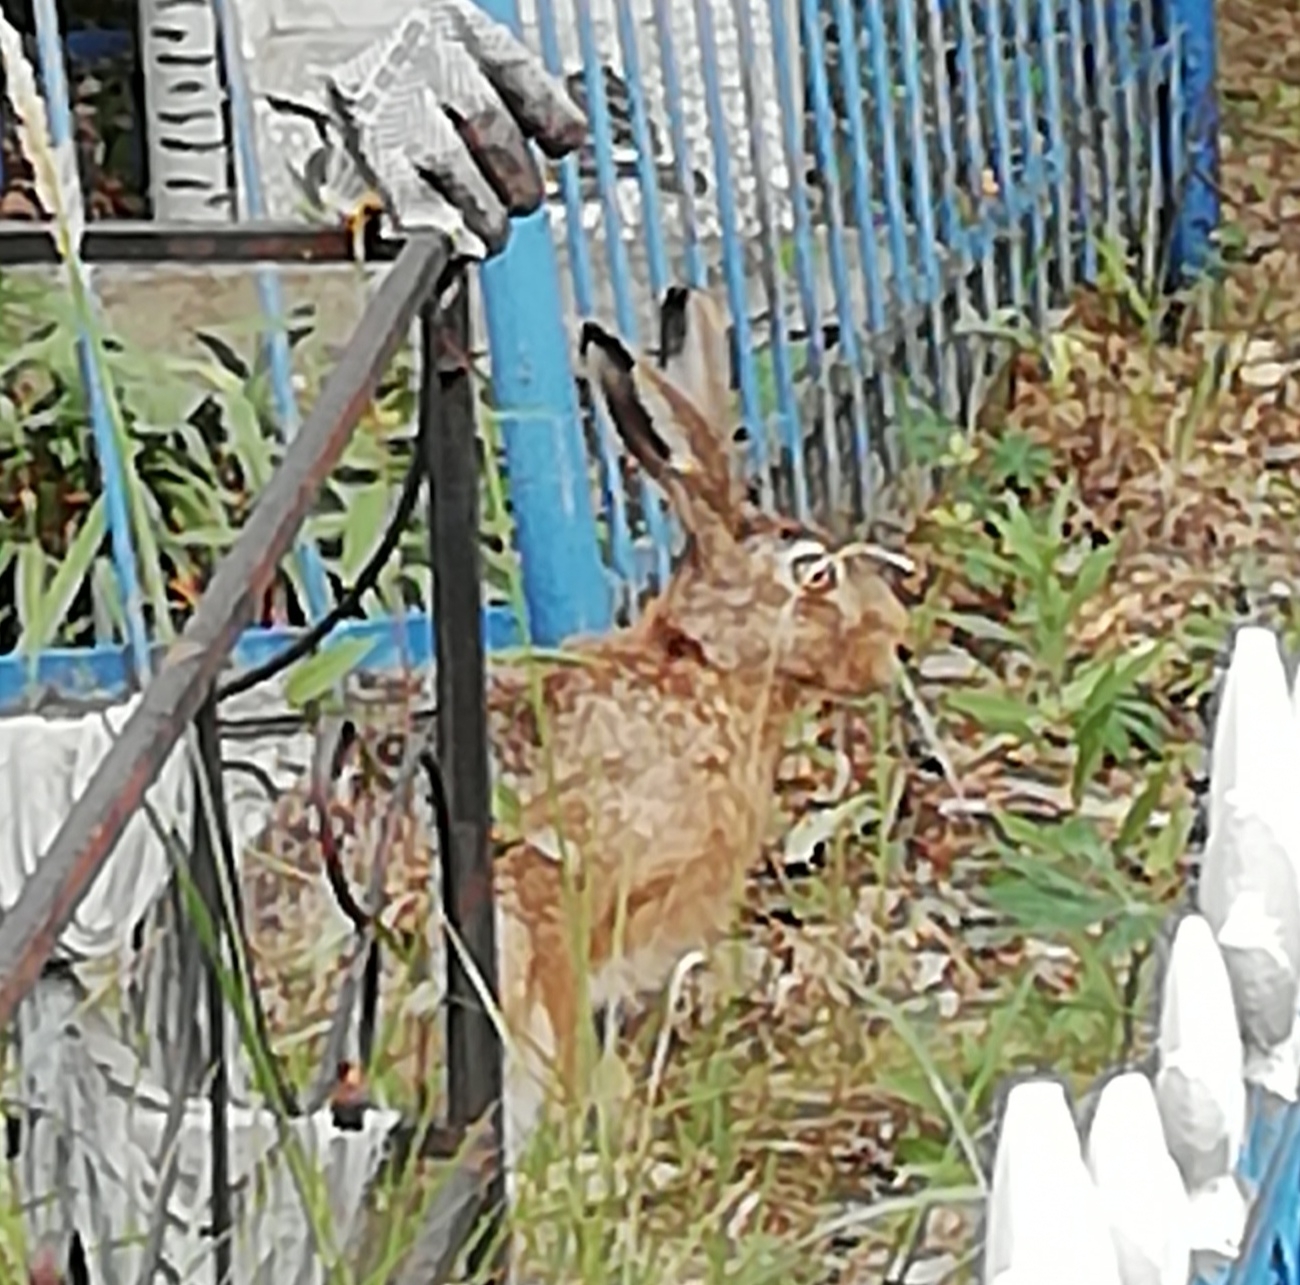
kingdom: Animalia
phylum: Chordata
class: Mammalia
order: Lagomorpha
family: Leporidae
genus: Lepus
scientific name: Lepus europaeus
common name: European hare
